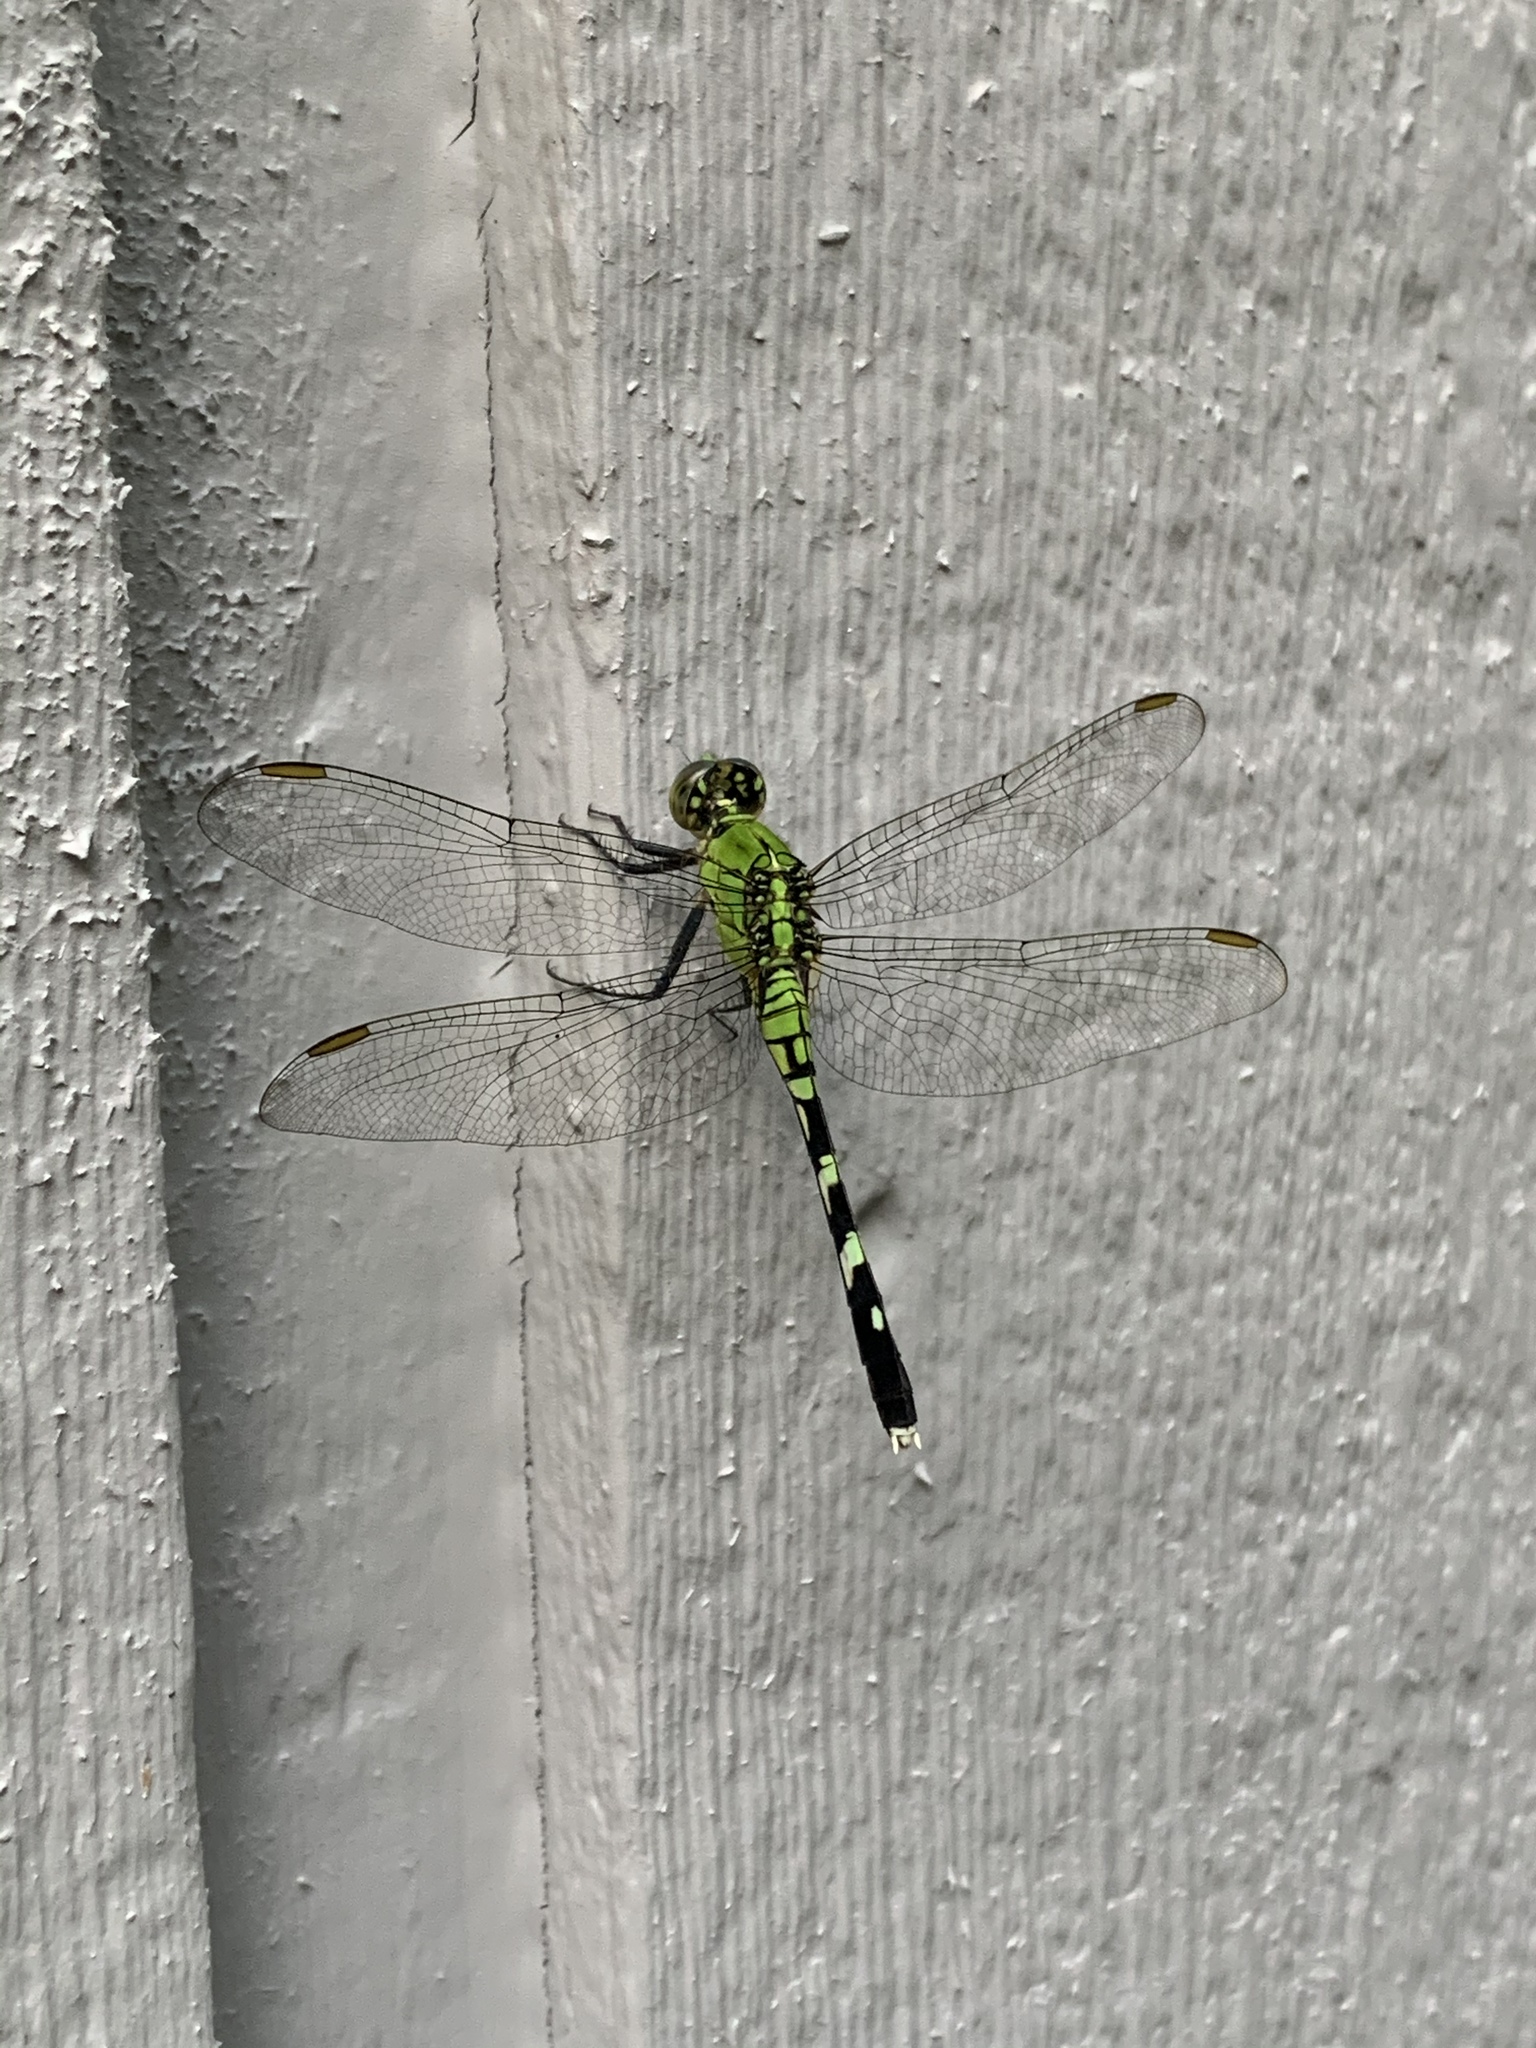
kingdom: Animalia
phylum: Arthropoda
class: Insecta
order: Odonata
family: Libellulidae
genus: Erythemis
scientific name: Erythemis simplicicollis
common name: Eastern pondhawk
